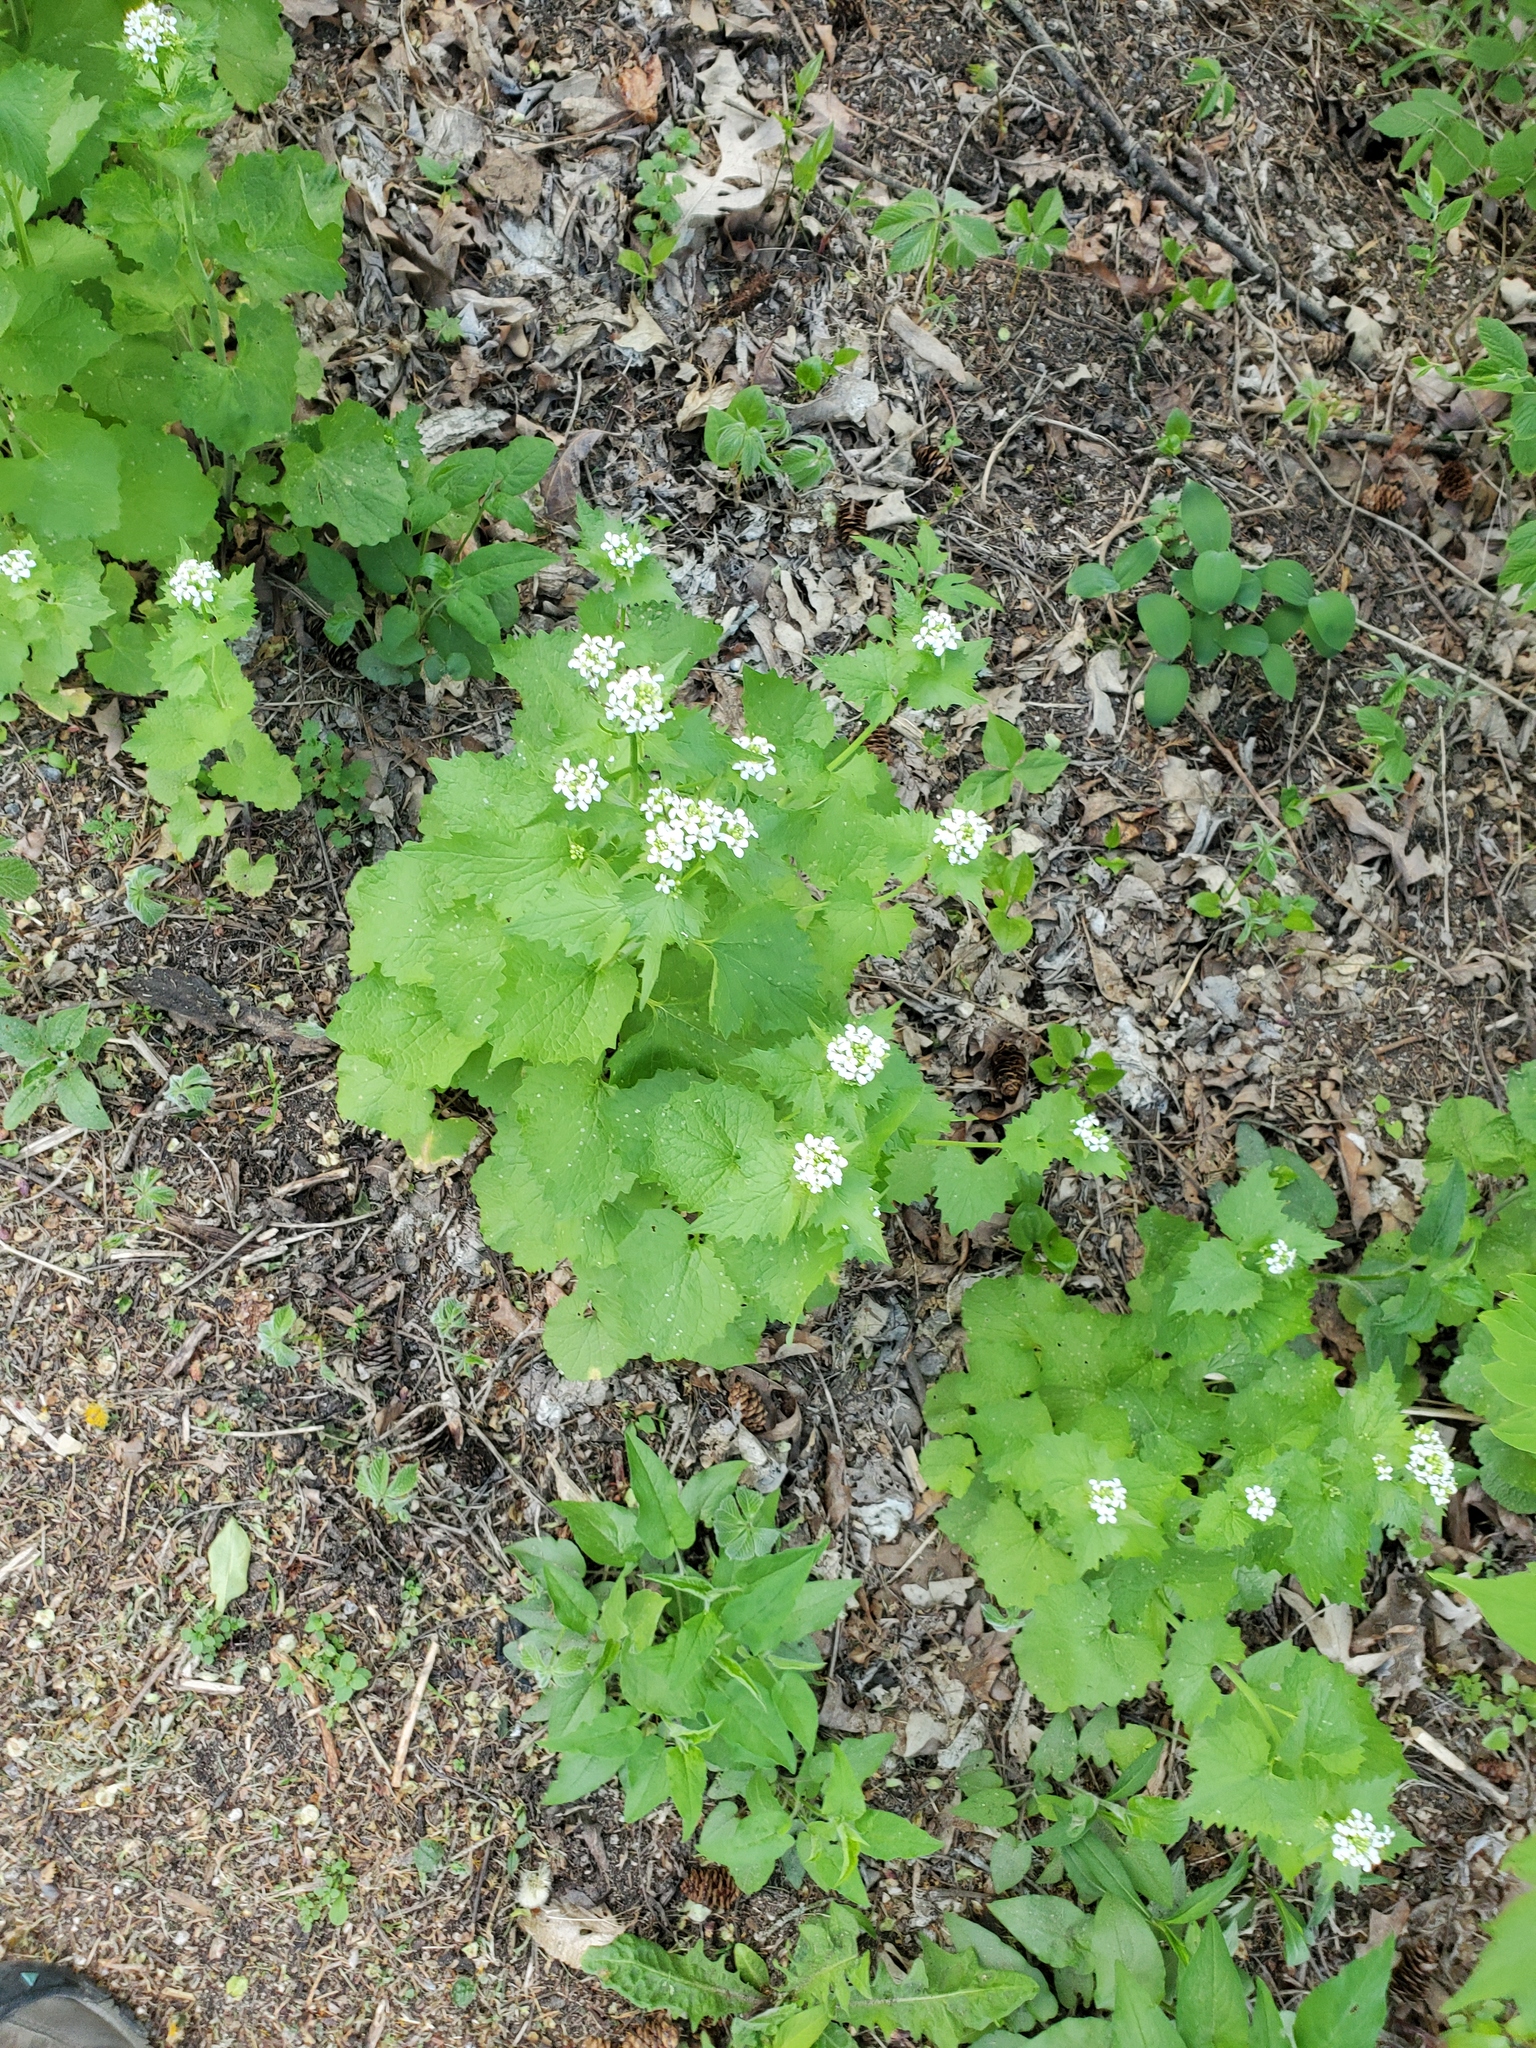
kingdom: Plantae
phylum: Tracheophyta
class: Magnoliopsida
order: Brassicales
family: Brassicaceae
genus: Alliaria
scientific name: Alliaria petiolata
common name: Garlic mustard
